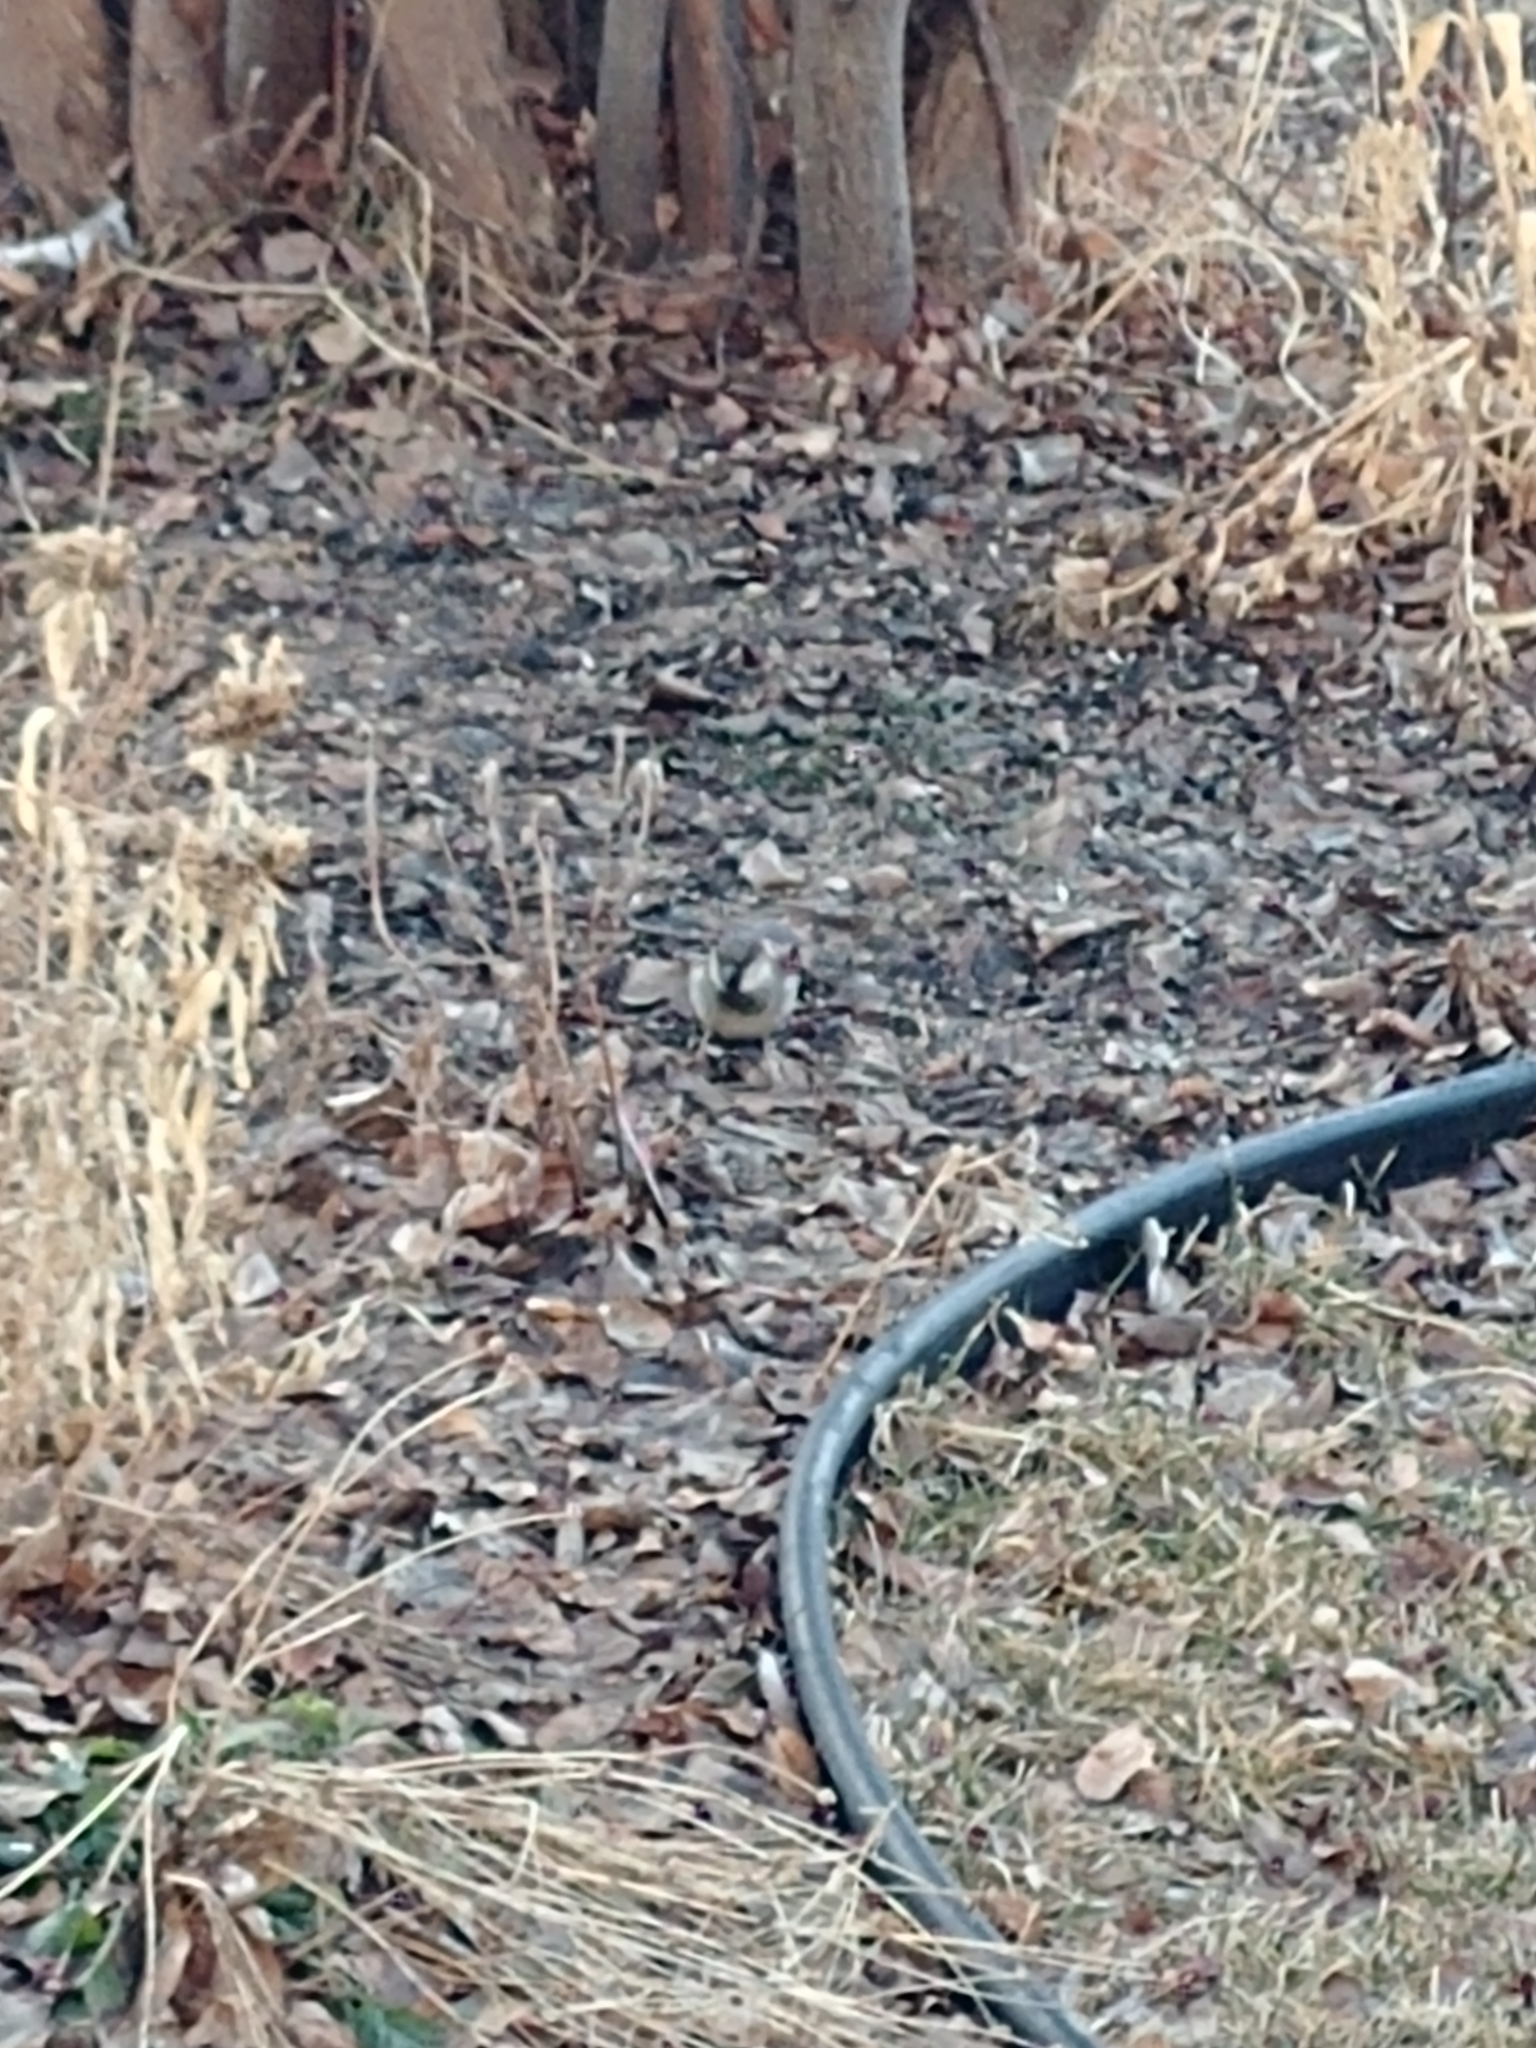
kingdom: Animalia
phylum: Chordata
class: Aves
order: Passeriformes
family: Passeridae
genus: Passer
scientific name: Passer domesticus
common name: House sparrow
